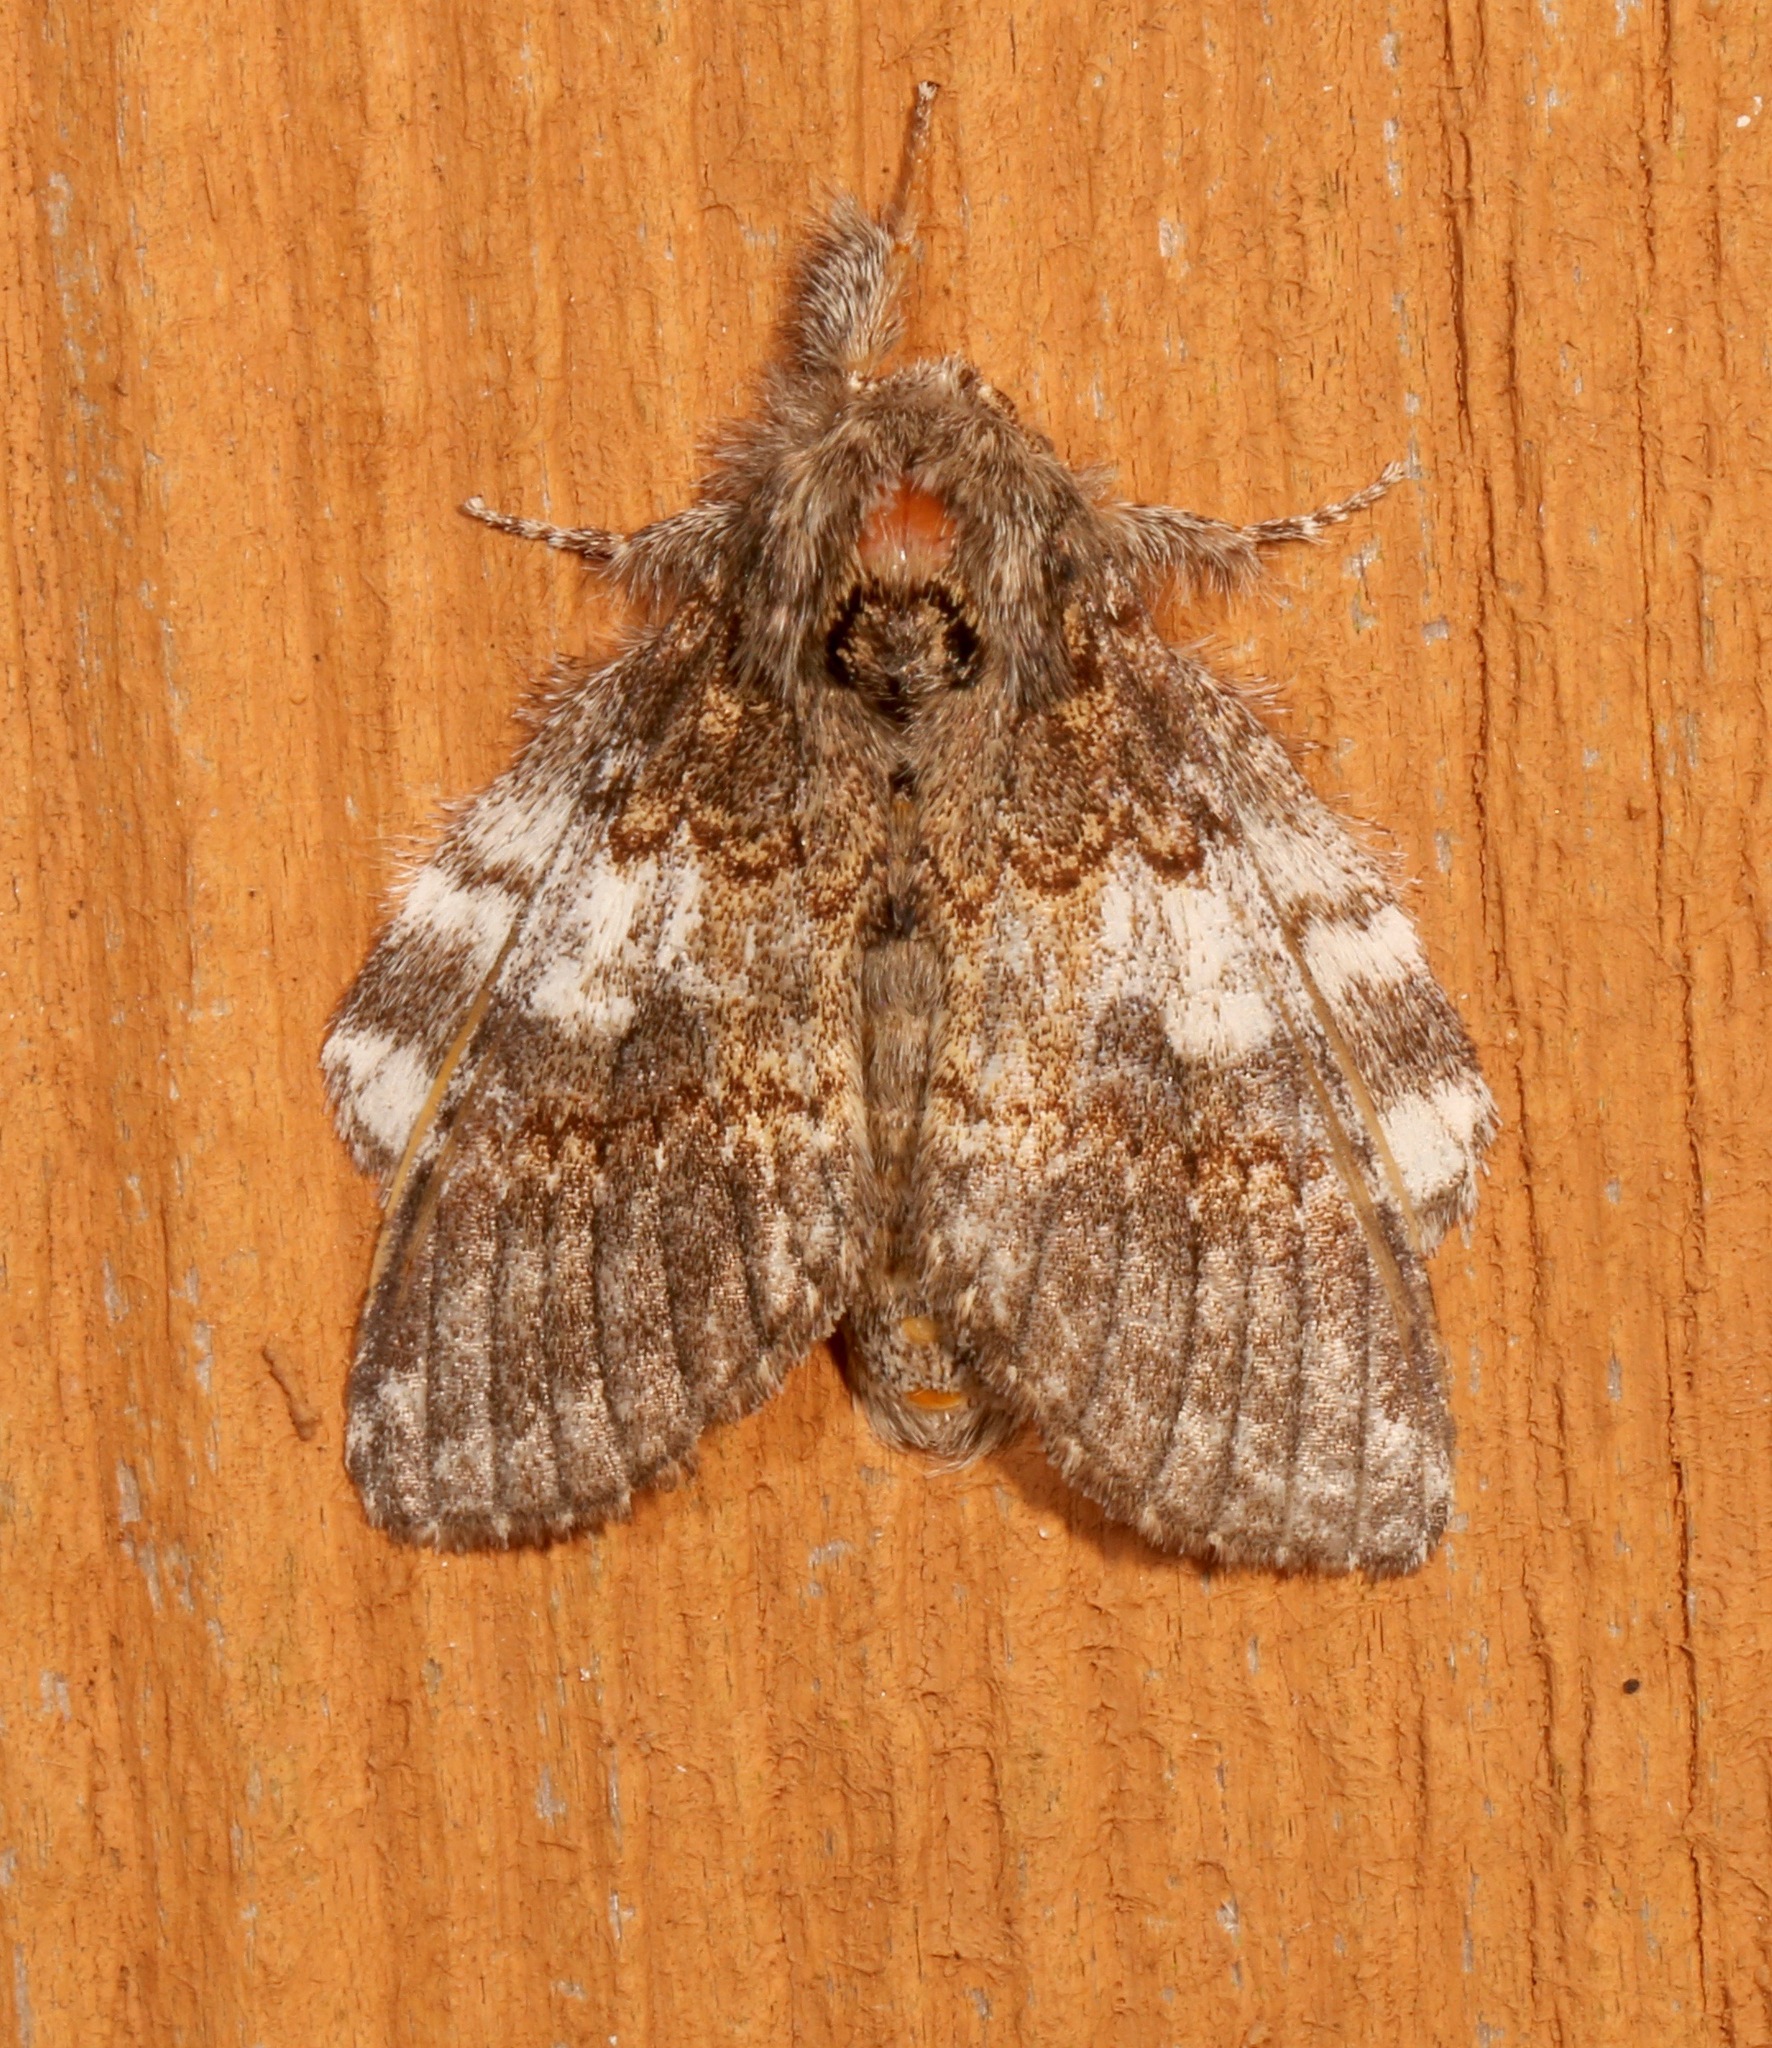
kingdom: Animalia
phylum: Arthropoda
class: Insecta
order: Lepidoptera
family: Notodontidae
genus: Peridea
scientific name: Peridea angulosa
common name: Angulose prominent
